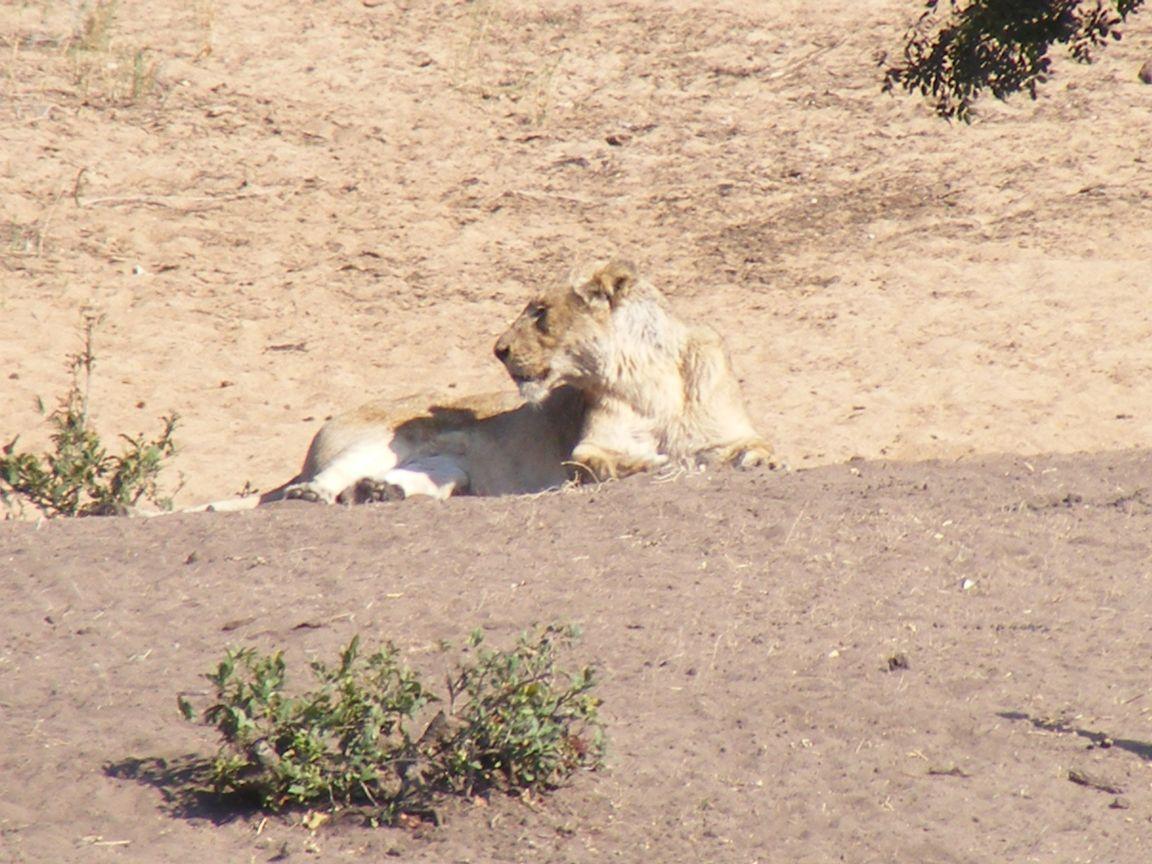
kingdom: Animalia
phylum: Chordata
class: Mammalia
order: Carnivora
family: Felidae
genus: Panthera
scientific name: Panthera leo
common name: Lion
